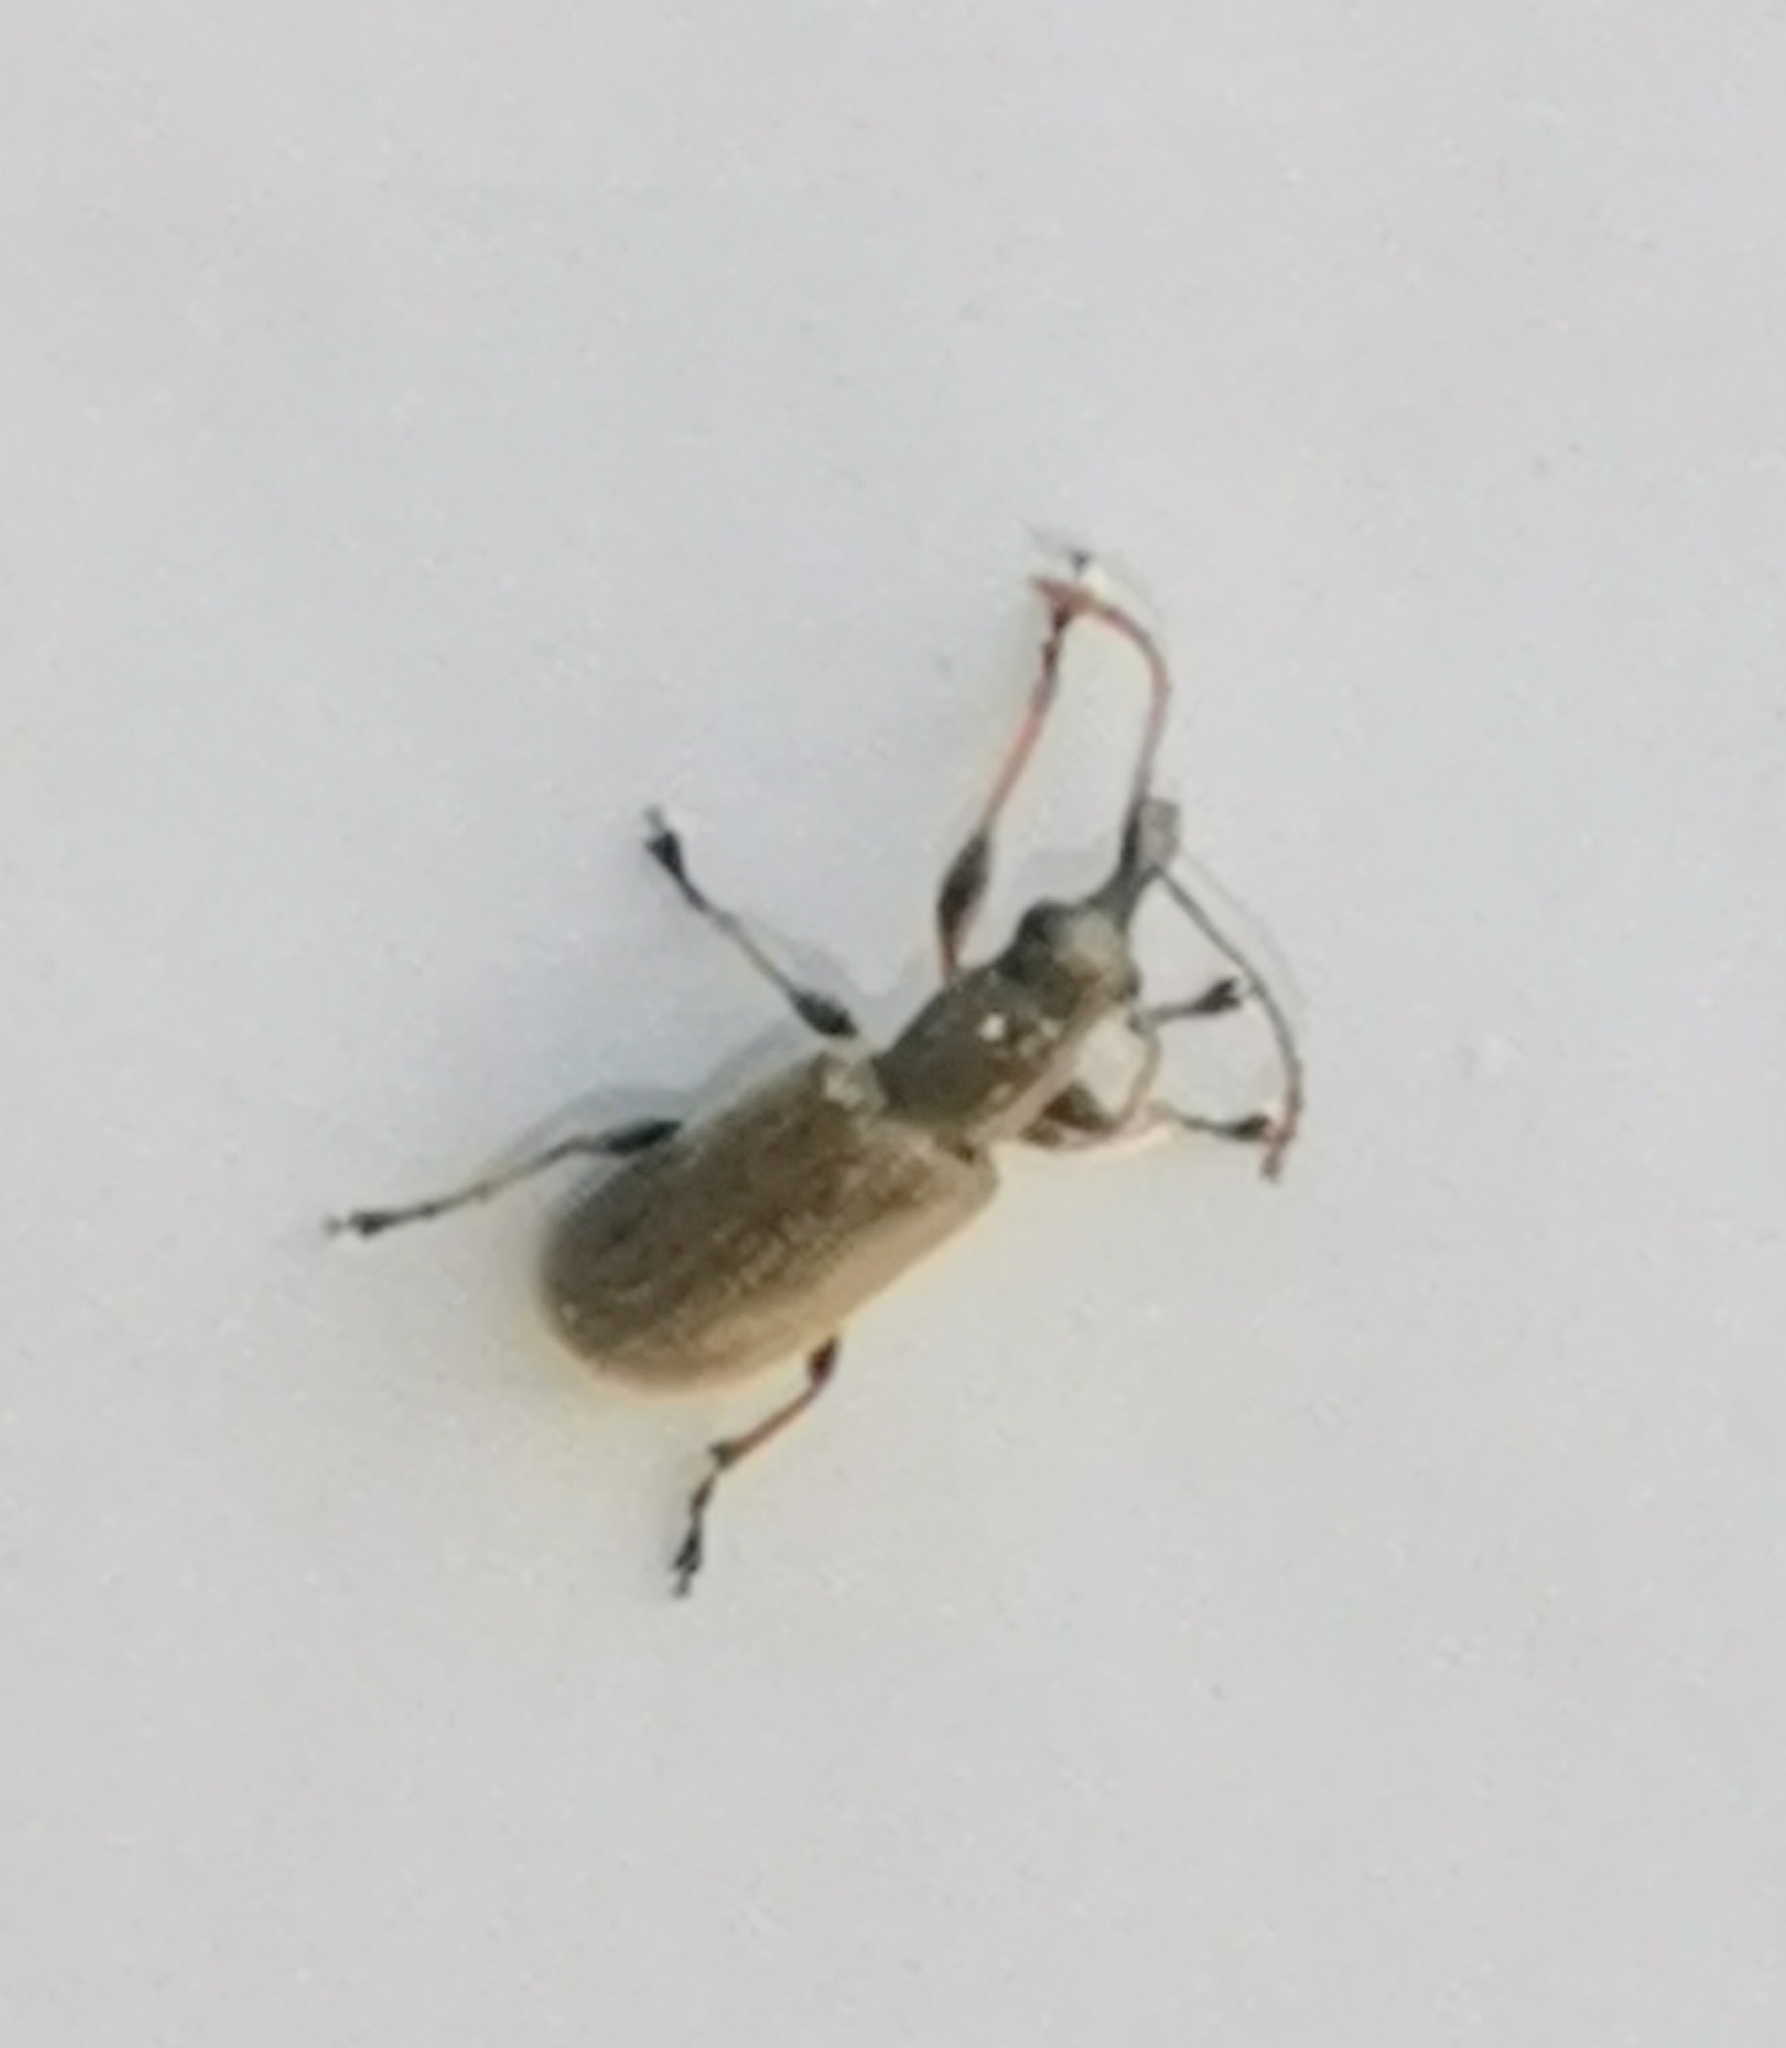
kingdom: Animalia
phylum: Arthropoda
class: Insecta
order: Coleoptera
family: Nemonychidae
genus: Cimberis
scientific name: Cimberis attelaboides
